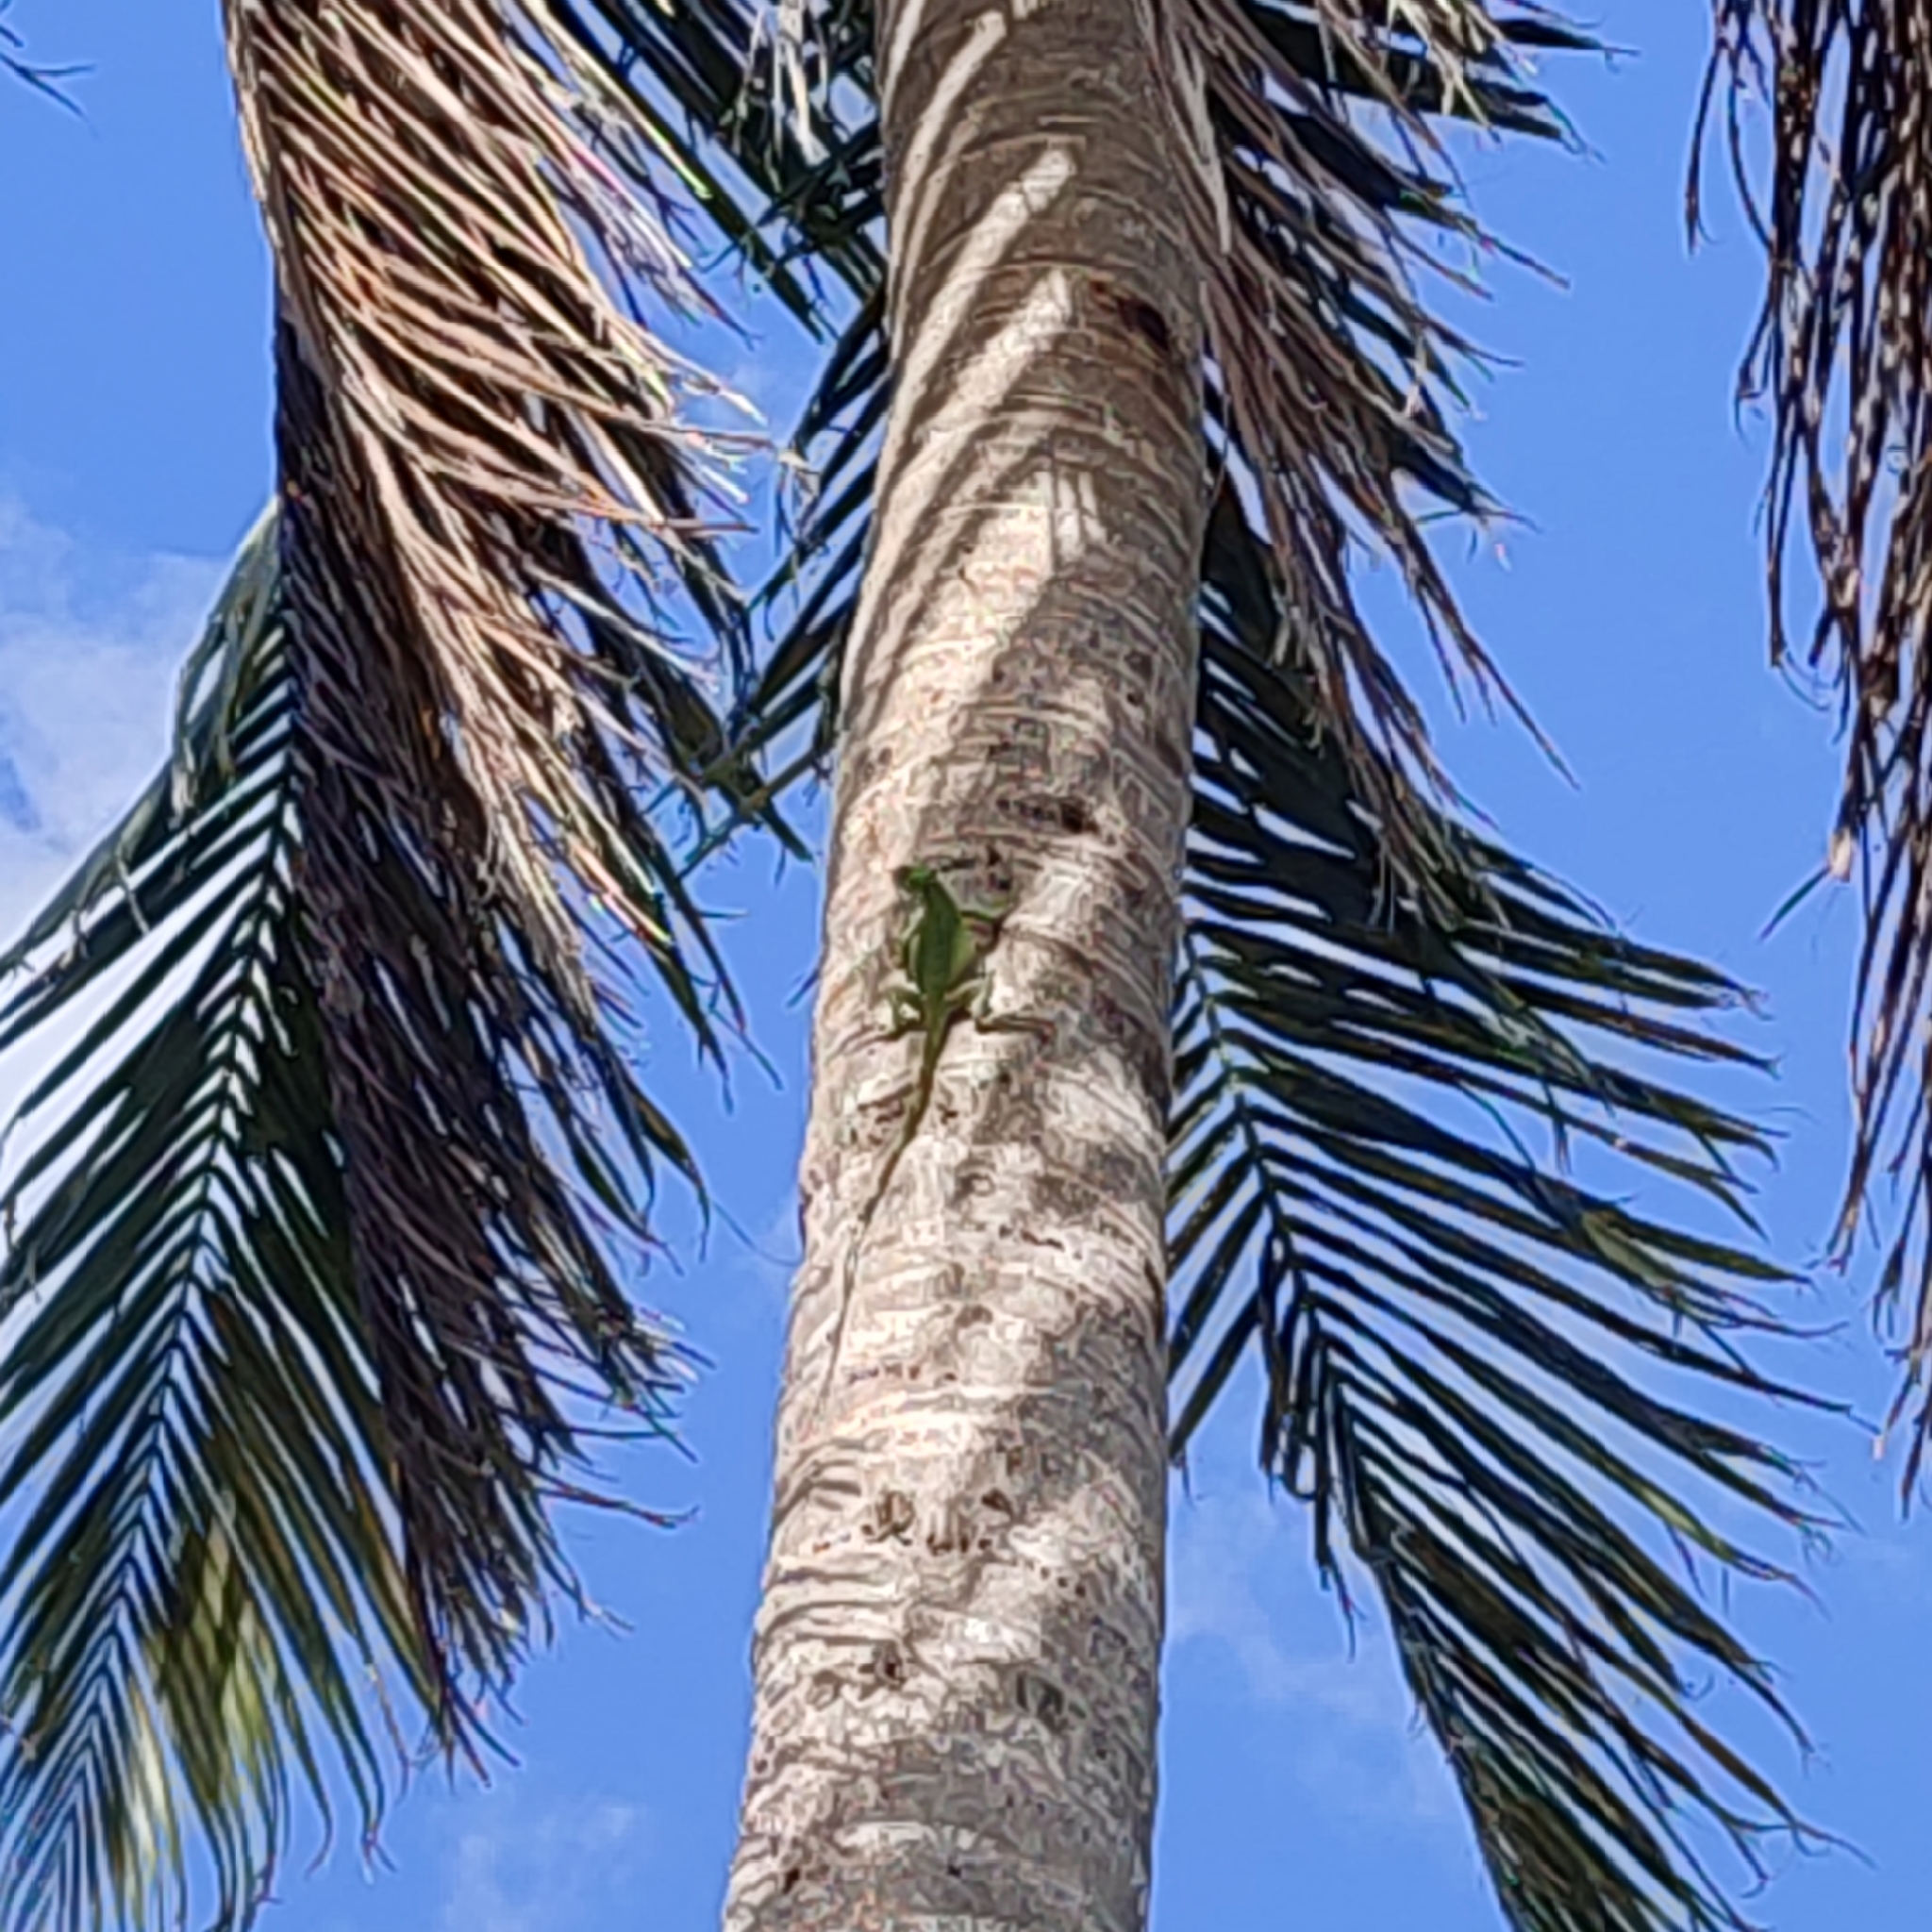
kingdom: Animalia
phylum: Chordata
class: Squamata
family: Iguanidae
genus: Iguana
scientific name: Iguana iguana
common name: Green iguana
